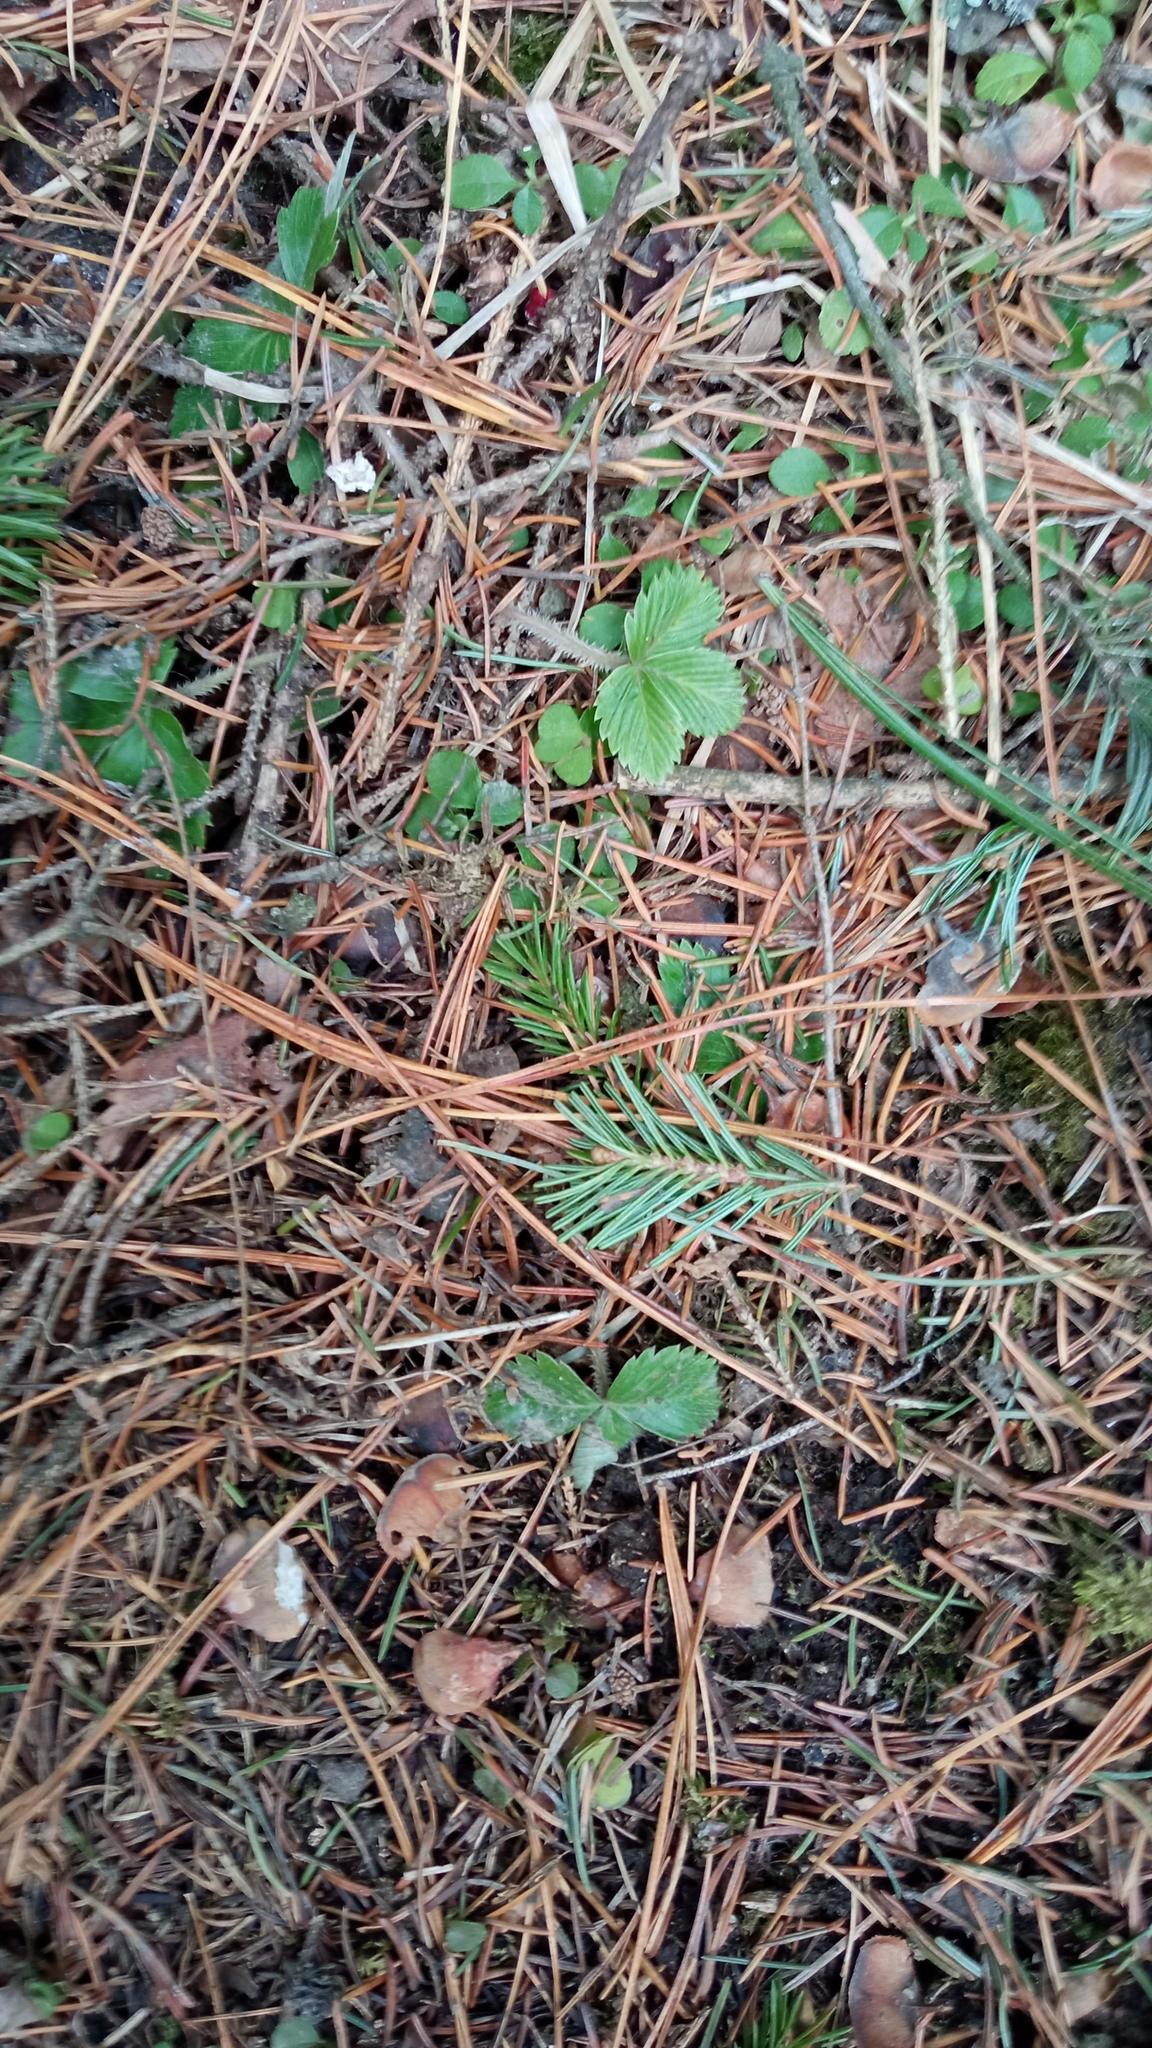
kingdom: Plantae
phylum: Tracheophyta
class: Magnoliopsida
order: Rosales
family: Rosaceae
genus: Fragaria
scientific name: Fragaria vesca
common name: Wild strawberry
